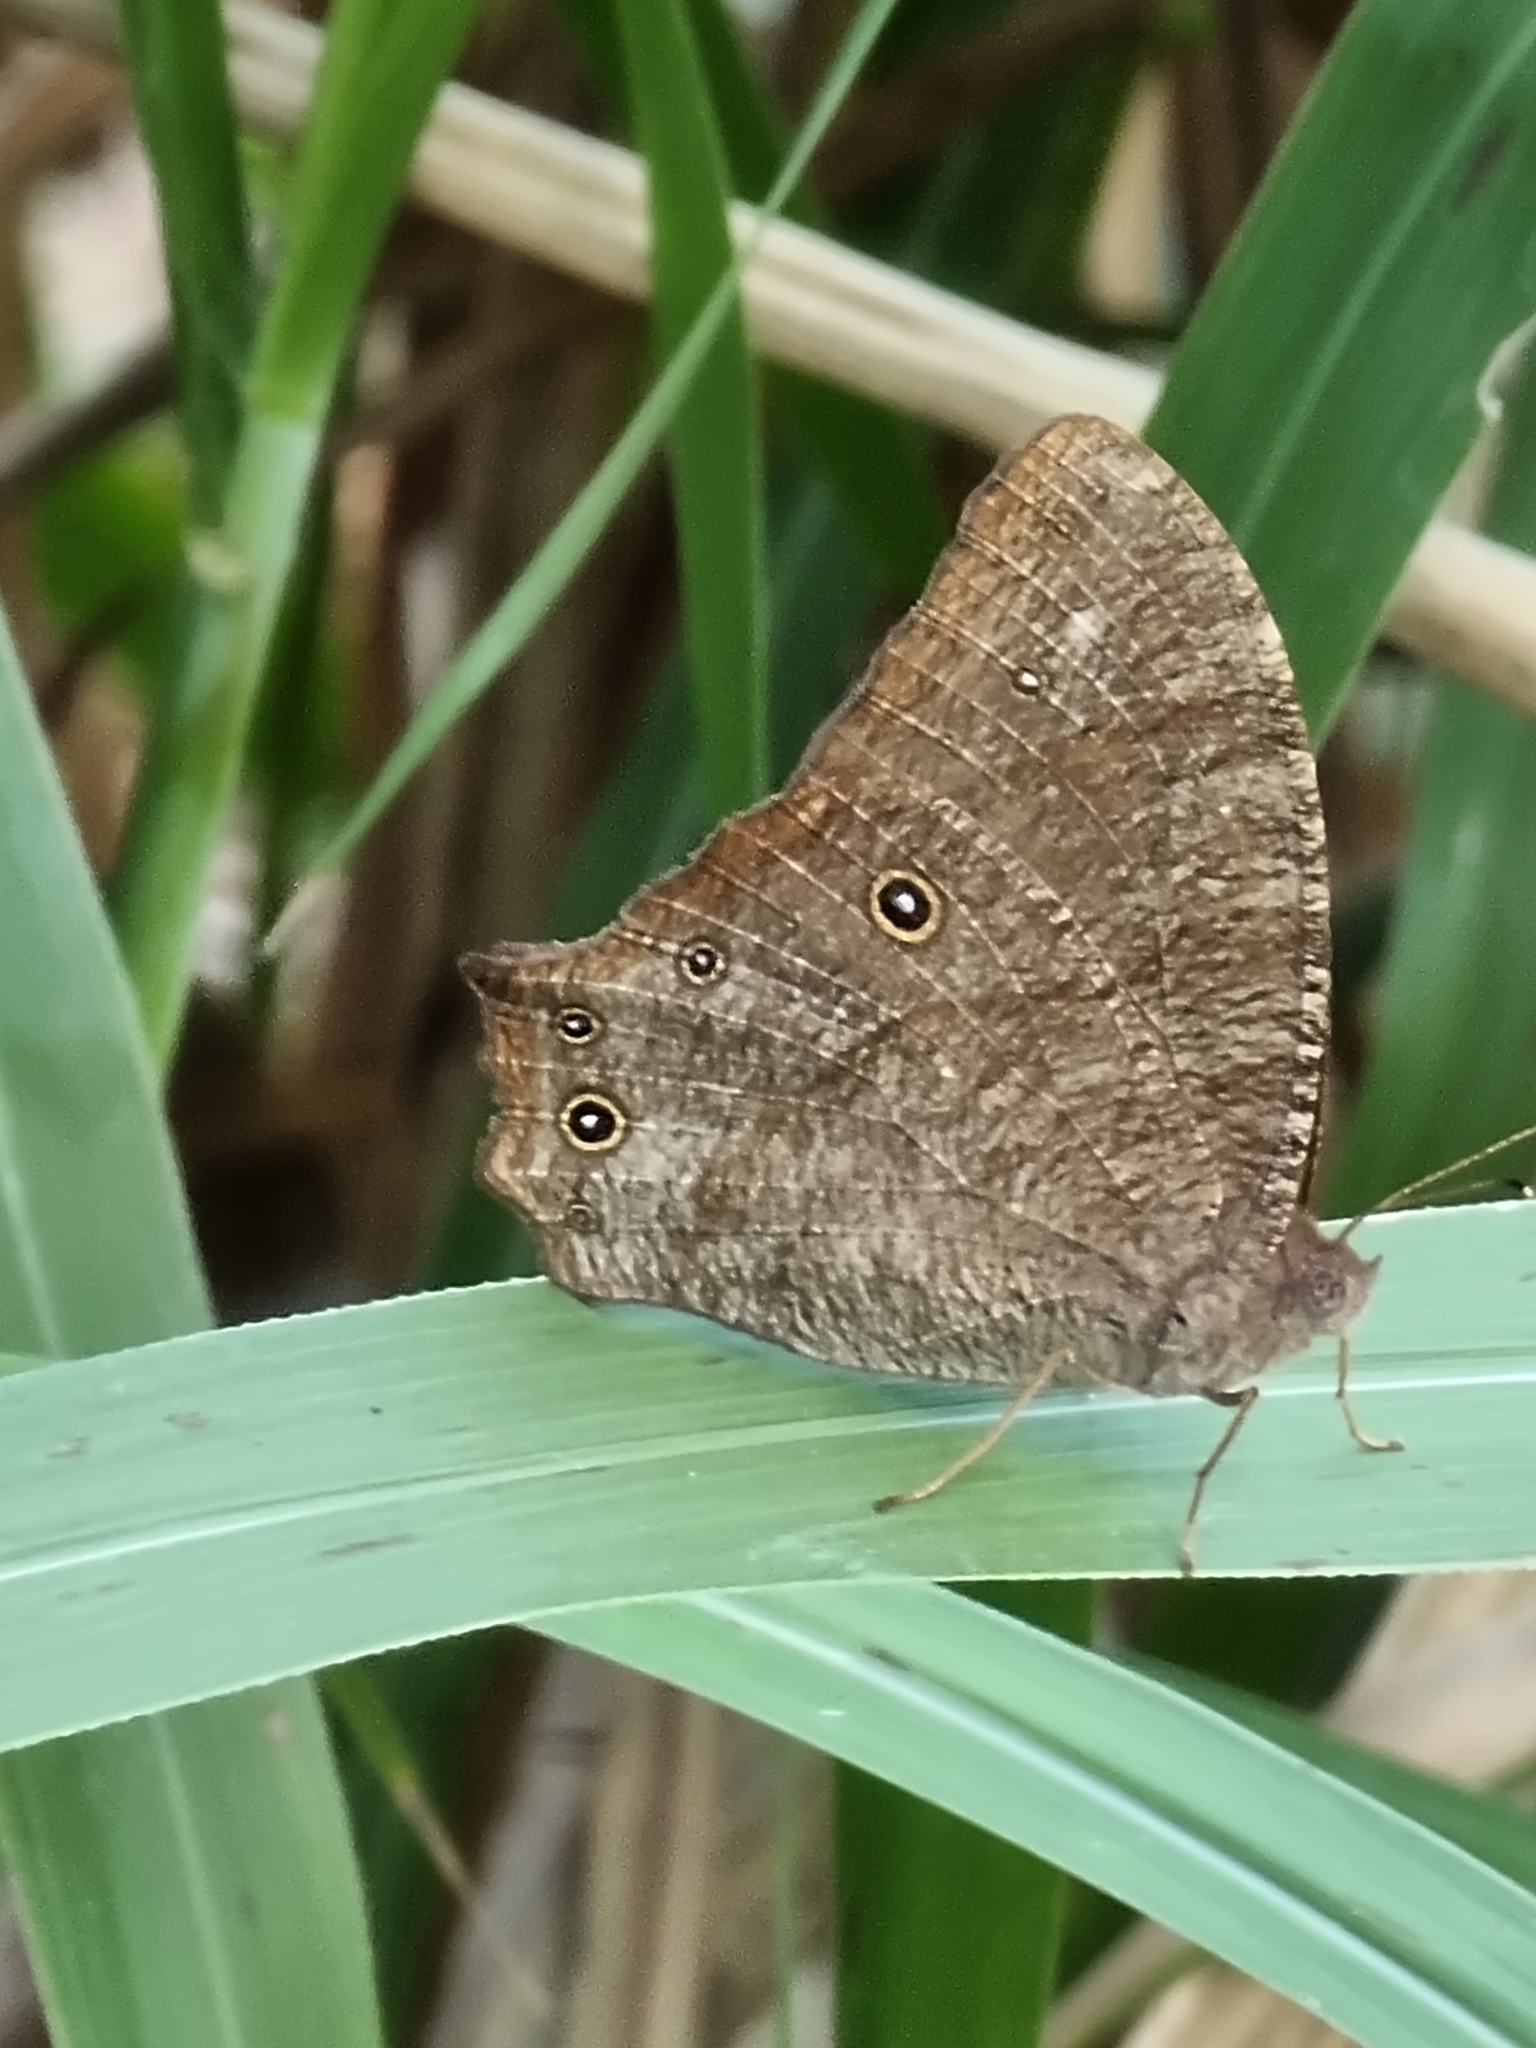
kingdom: Animalia
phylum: Arthropoda
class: Insecta
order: Lepidoptera
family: Nymphalidae
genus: Melanitis
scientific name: Melanitis leda
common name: Twilight brown
